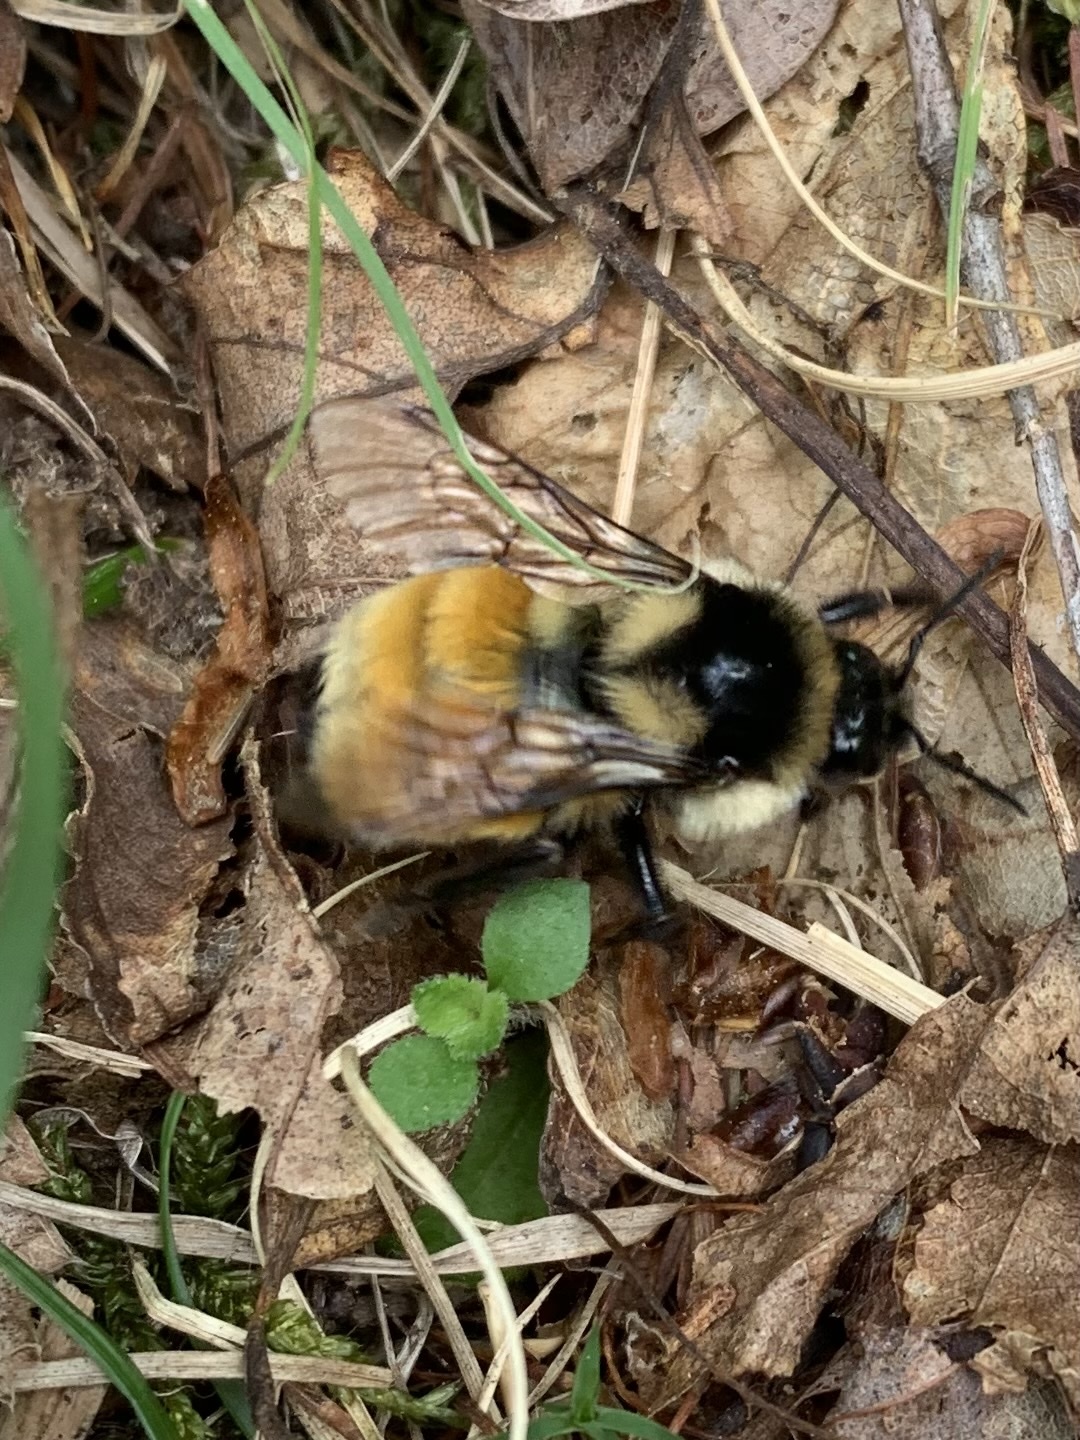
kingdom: Animalia
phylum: Arthropoda
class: Insecta
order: Hymenoptera
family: Apidae
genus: Bombus
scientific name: Bombus ternarius
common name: Tri-colored bumble bee
